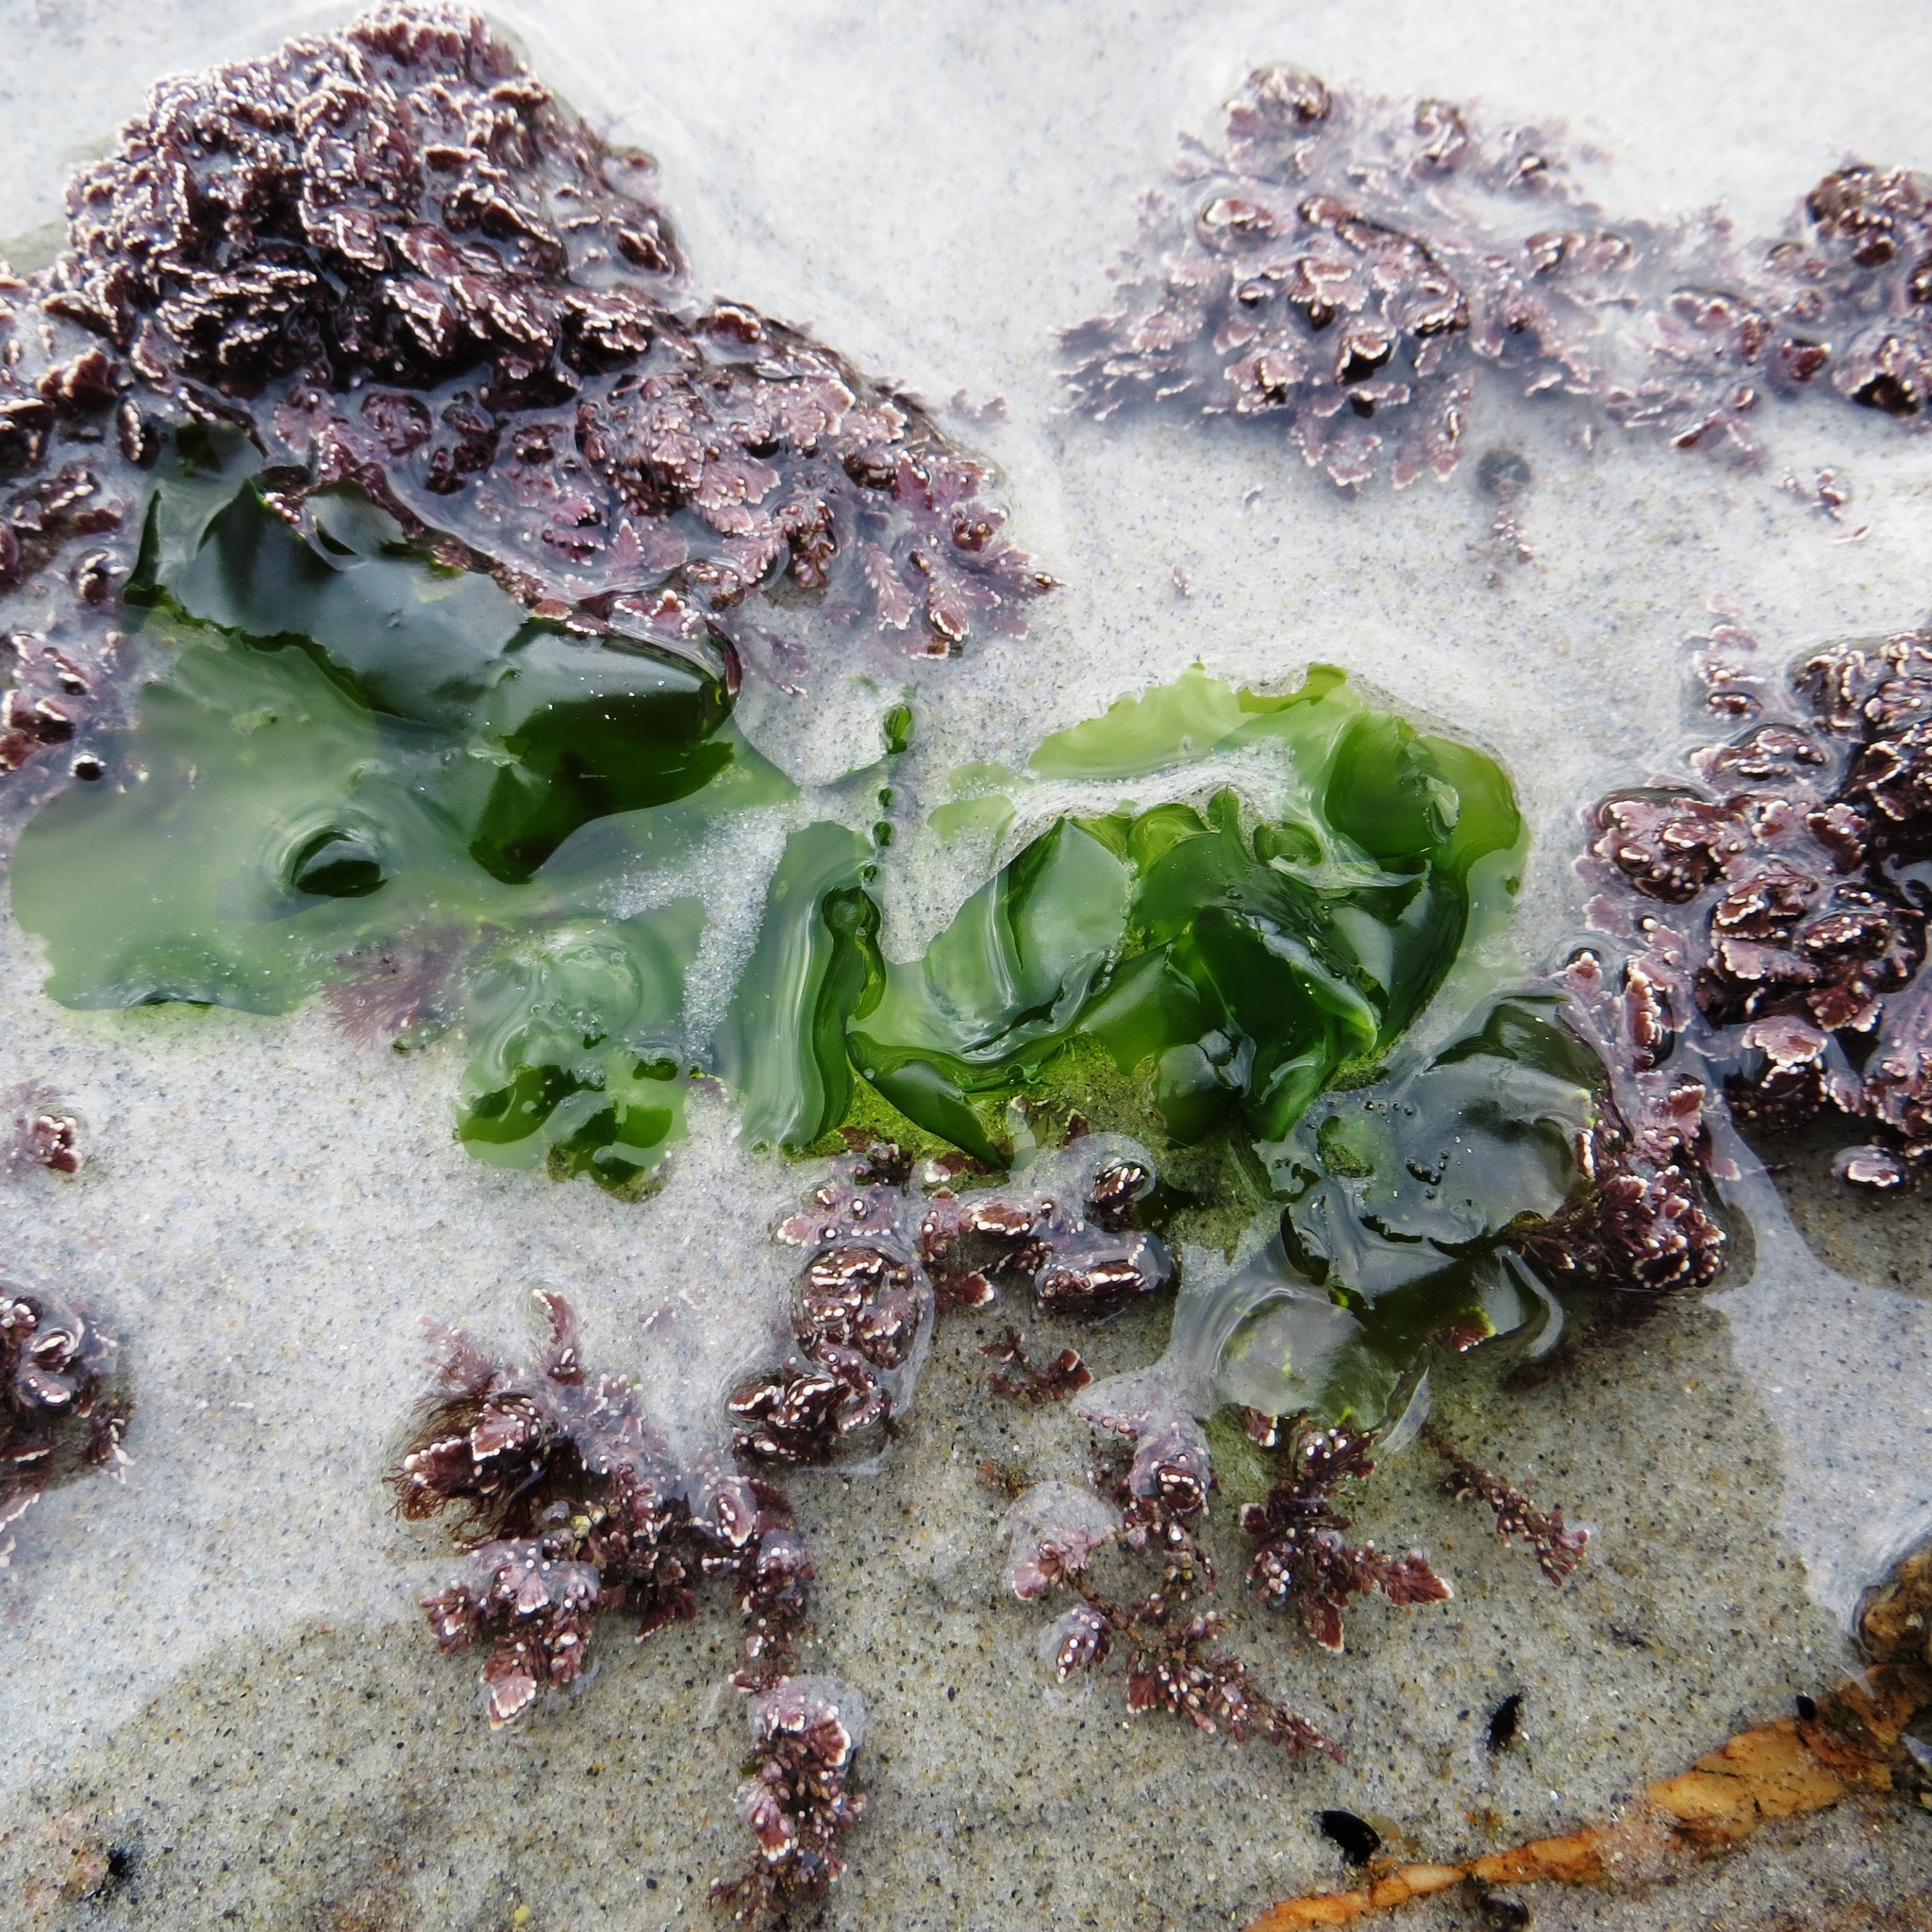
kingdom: Plantae
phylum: Chlorophyta
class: Ulvophyceae
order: Ulvales
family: Ulvaceae
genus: Ulva
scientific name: Ulva
